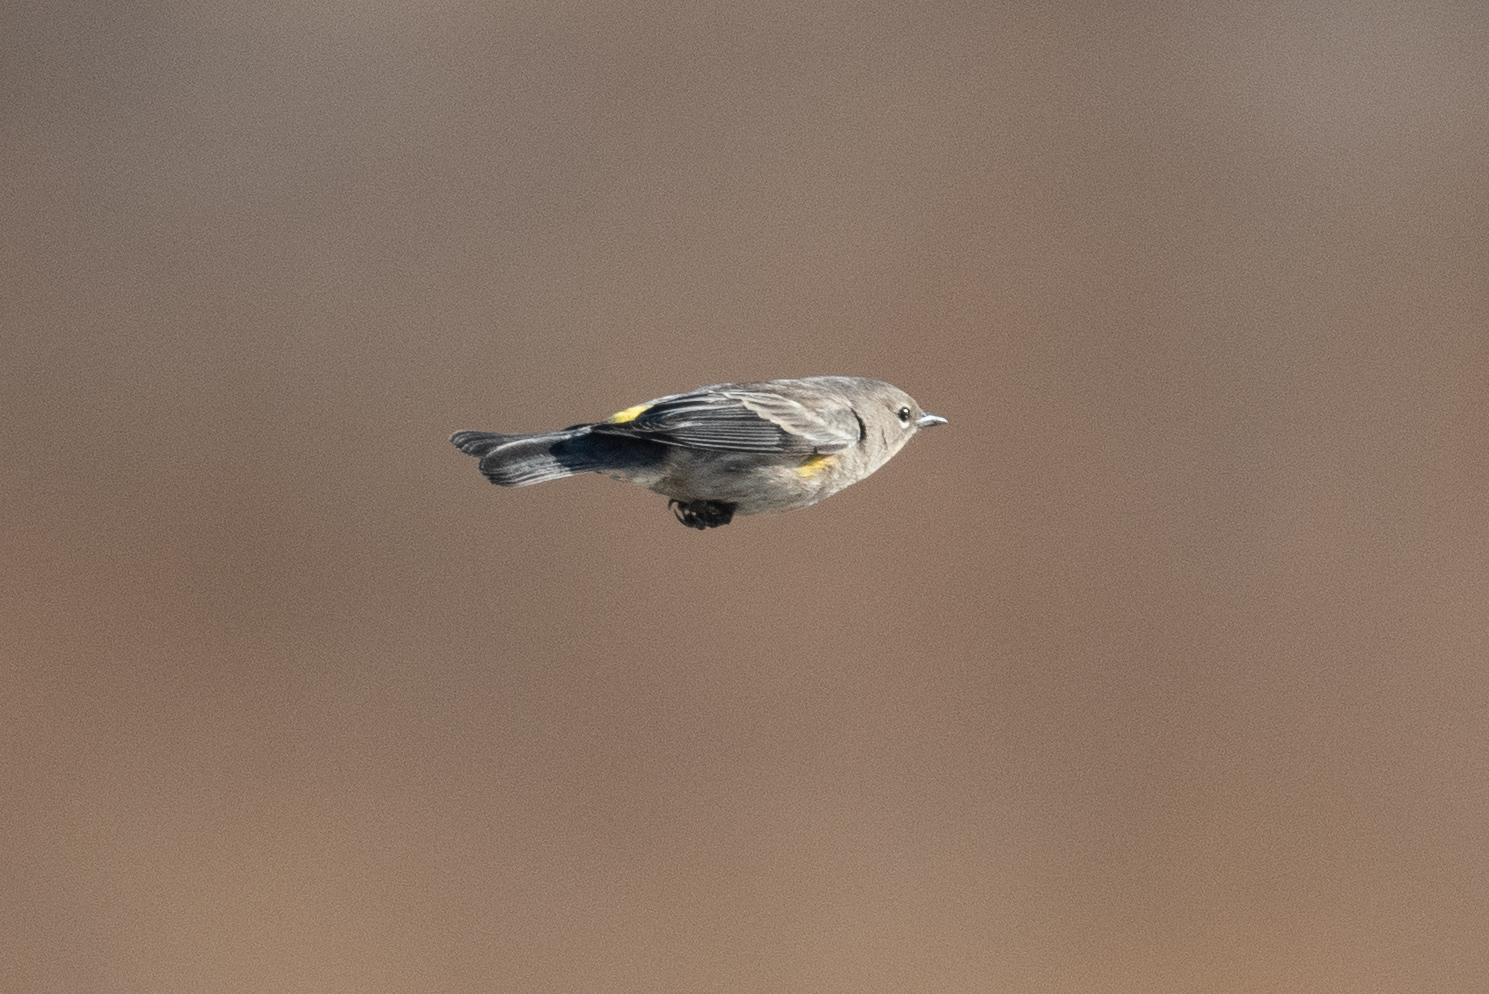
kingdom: Animalia
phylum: Chordata
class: Aves
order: Passeriformes
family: Parulidae
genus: Setophaga
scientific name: Setophaga coronata
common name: Myrtle warbler
